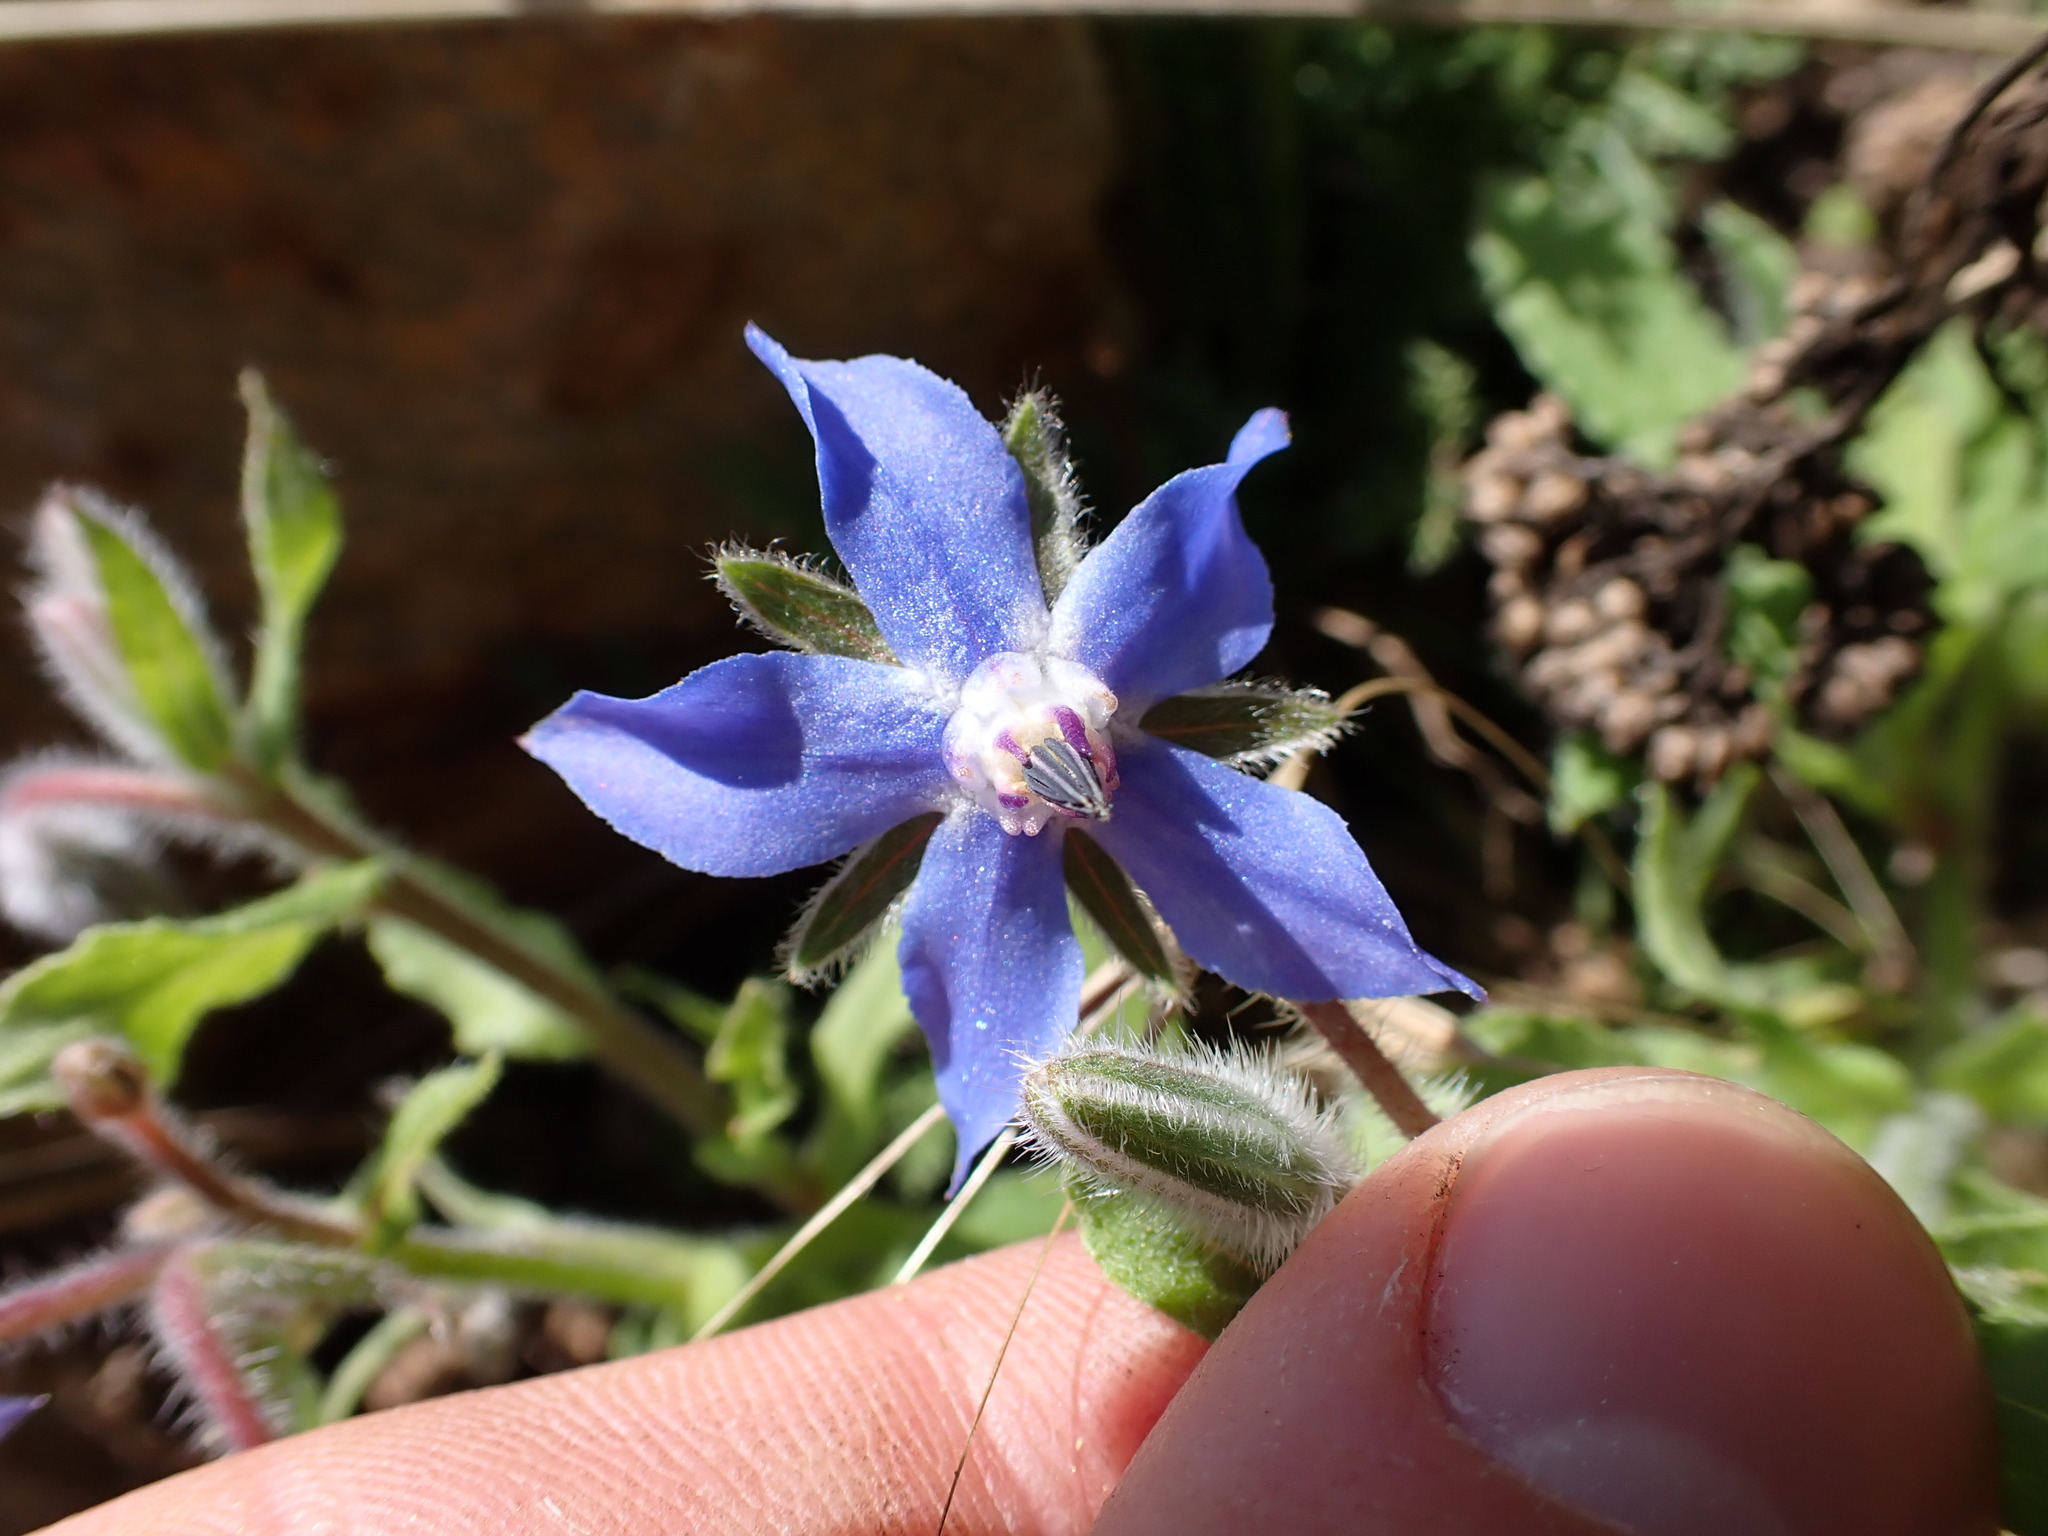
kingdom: Plantae
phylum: Tracheophyta
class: Magnoliopsida
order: Boraginales
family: Boraginaceae
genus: Borago
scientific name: Borago officinalis
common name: Borage
